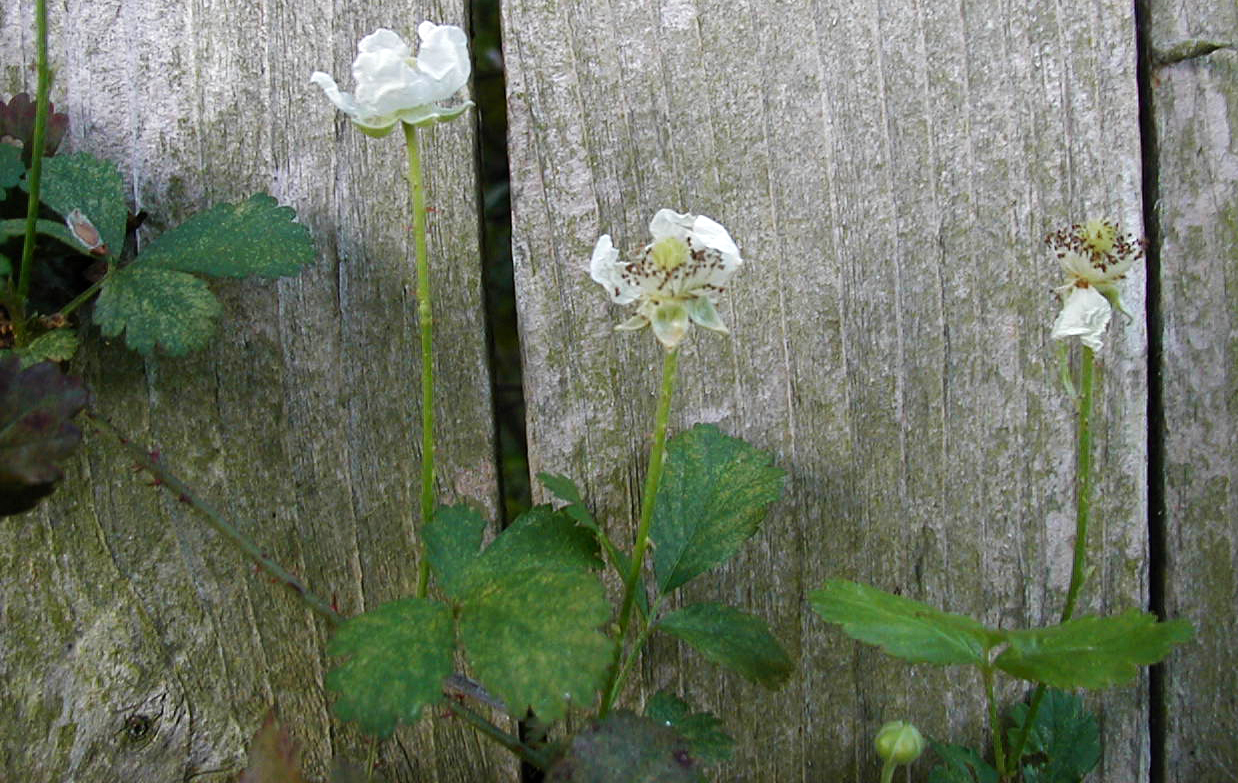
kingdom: Plantae
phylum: Tracheophyta
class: Magnoliopsida
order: Rosales
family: Rosaceae
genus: Rubus
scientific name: Rubus flagellaris
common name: American dewberry
